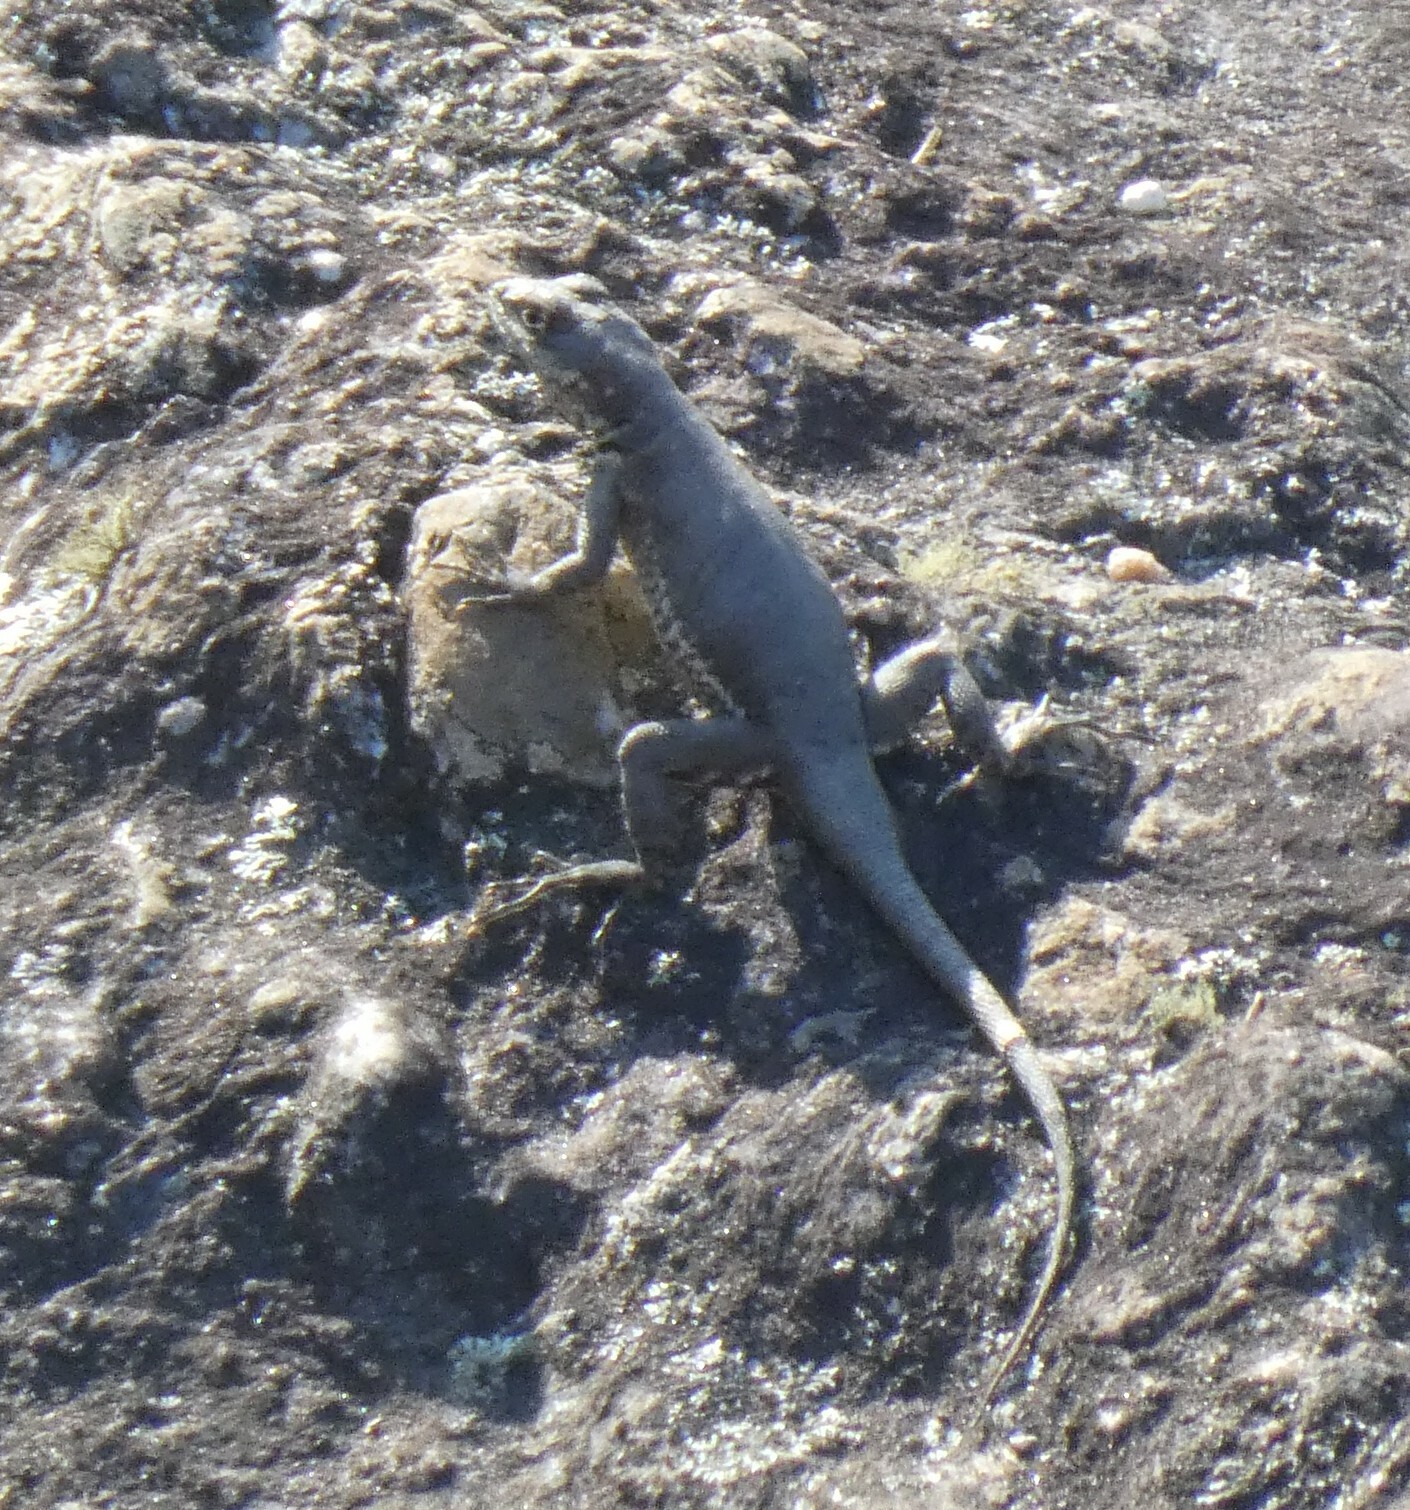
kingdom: Animalia
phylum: Chordata
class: Squamata
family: Tropiduridae
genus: Tropidurus
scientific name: Tropidurus torquatus
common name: Amazon lava lizard
